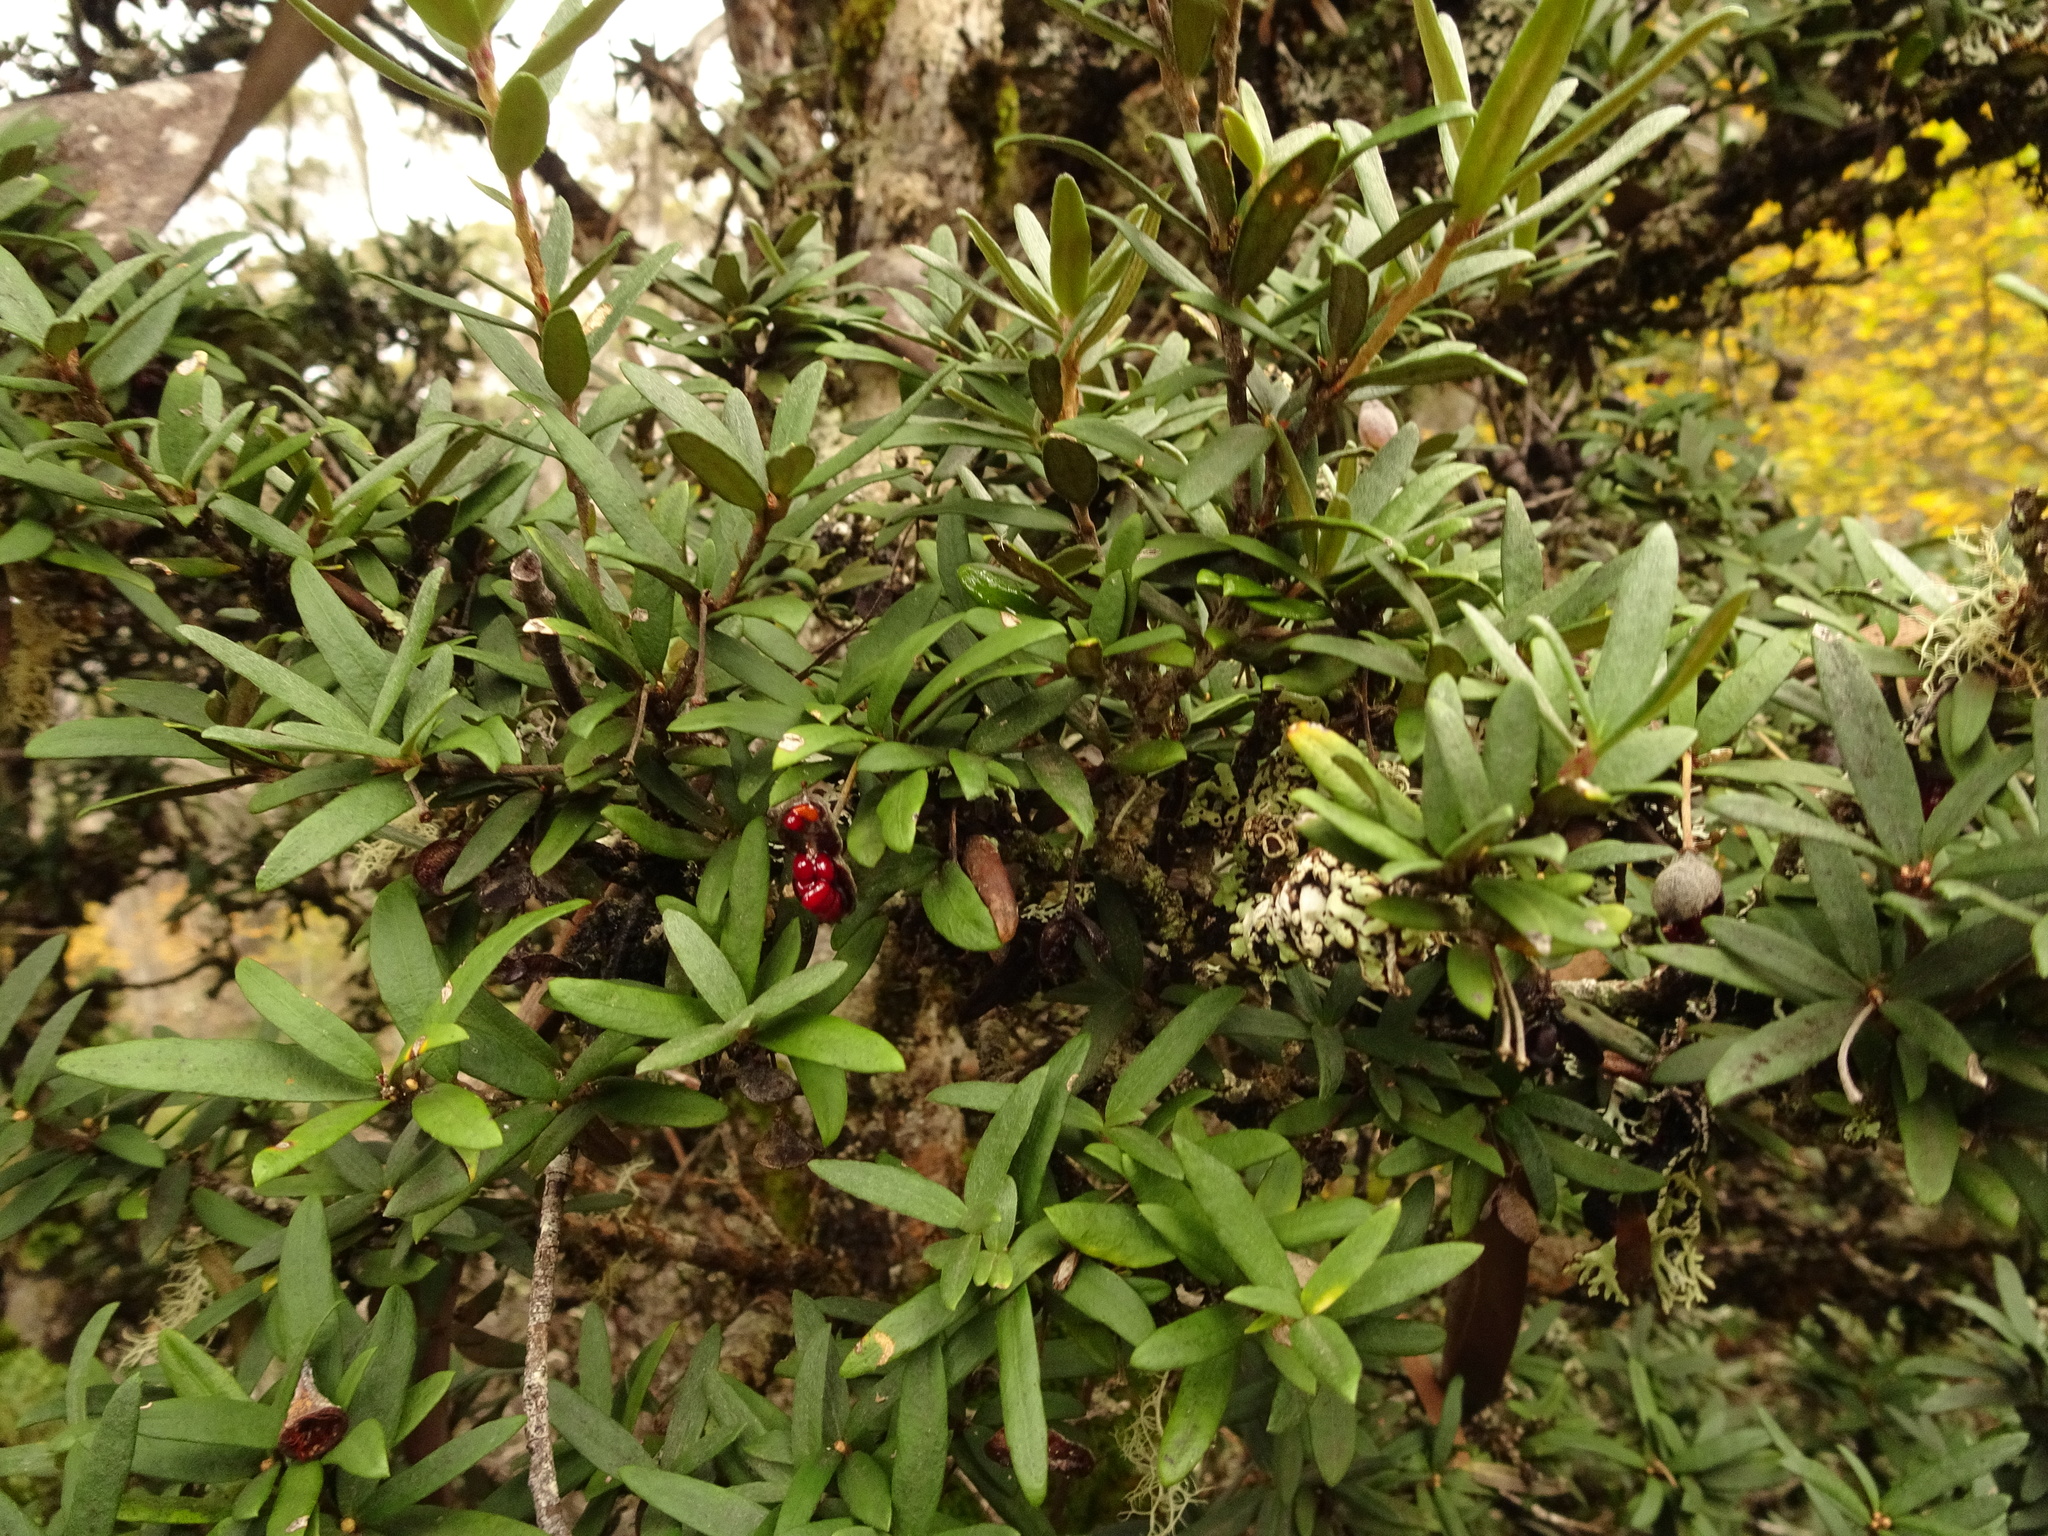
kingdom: Plantae
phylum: Tracheophyta
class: Magnoliopsida
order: Apiales
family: Pittosporaceae
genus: Pittosporum
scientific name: Pittosporum bicolor
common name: Tallowwood
